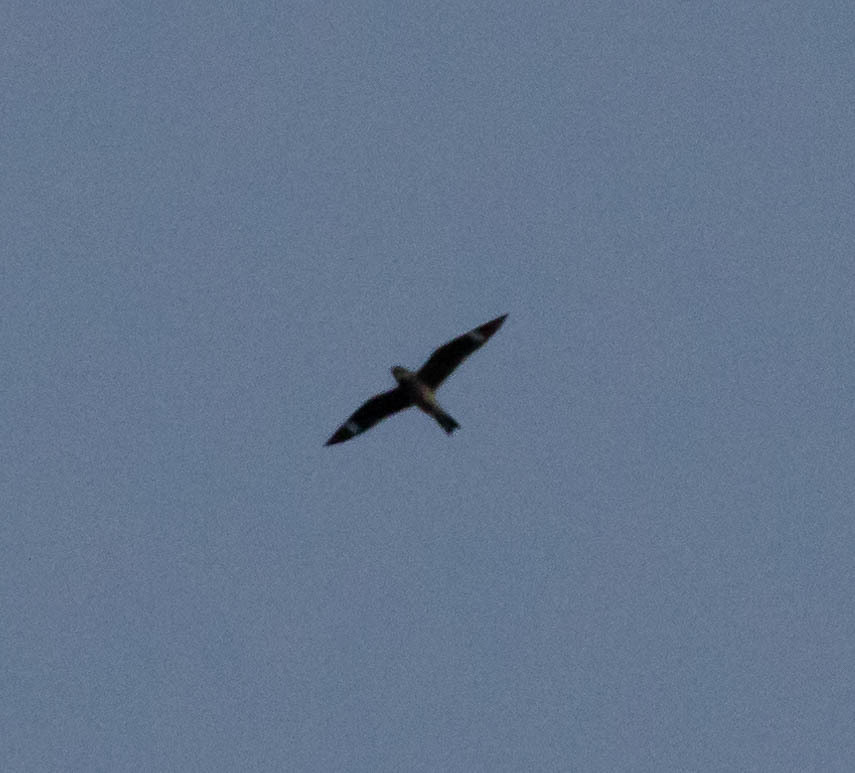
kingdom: Animalia
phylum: Chordata
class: Aves
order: Caprimulgiformes
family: Caprimulgidae
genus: Chordeiles
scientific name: Chordeiles minor
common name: Common nighthawk
